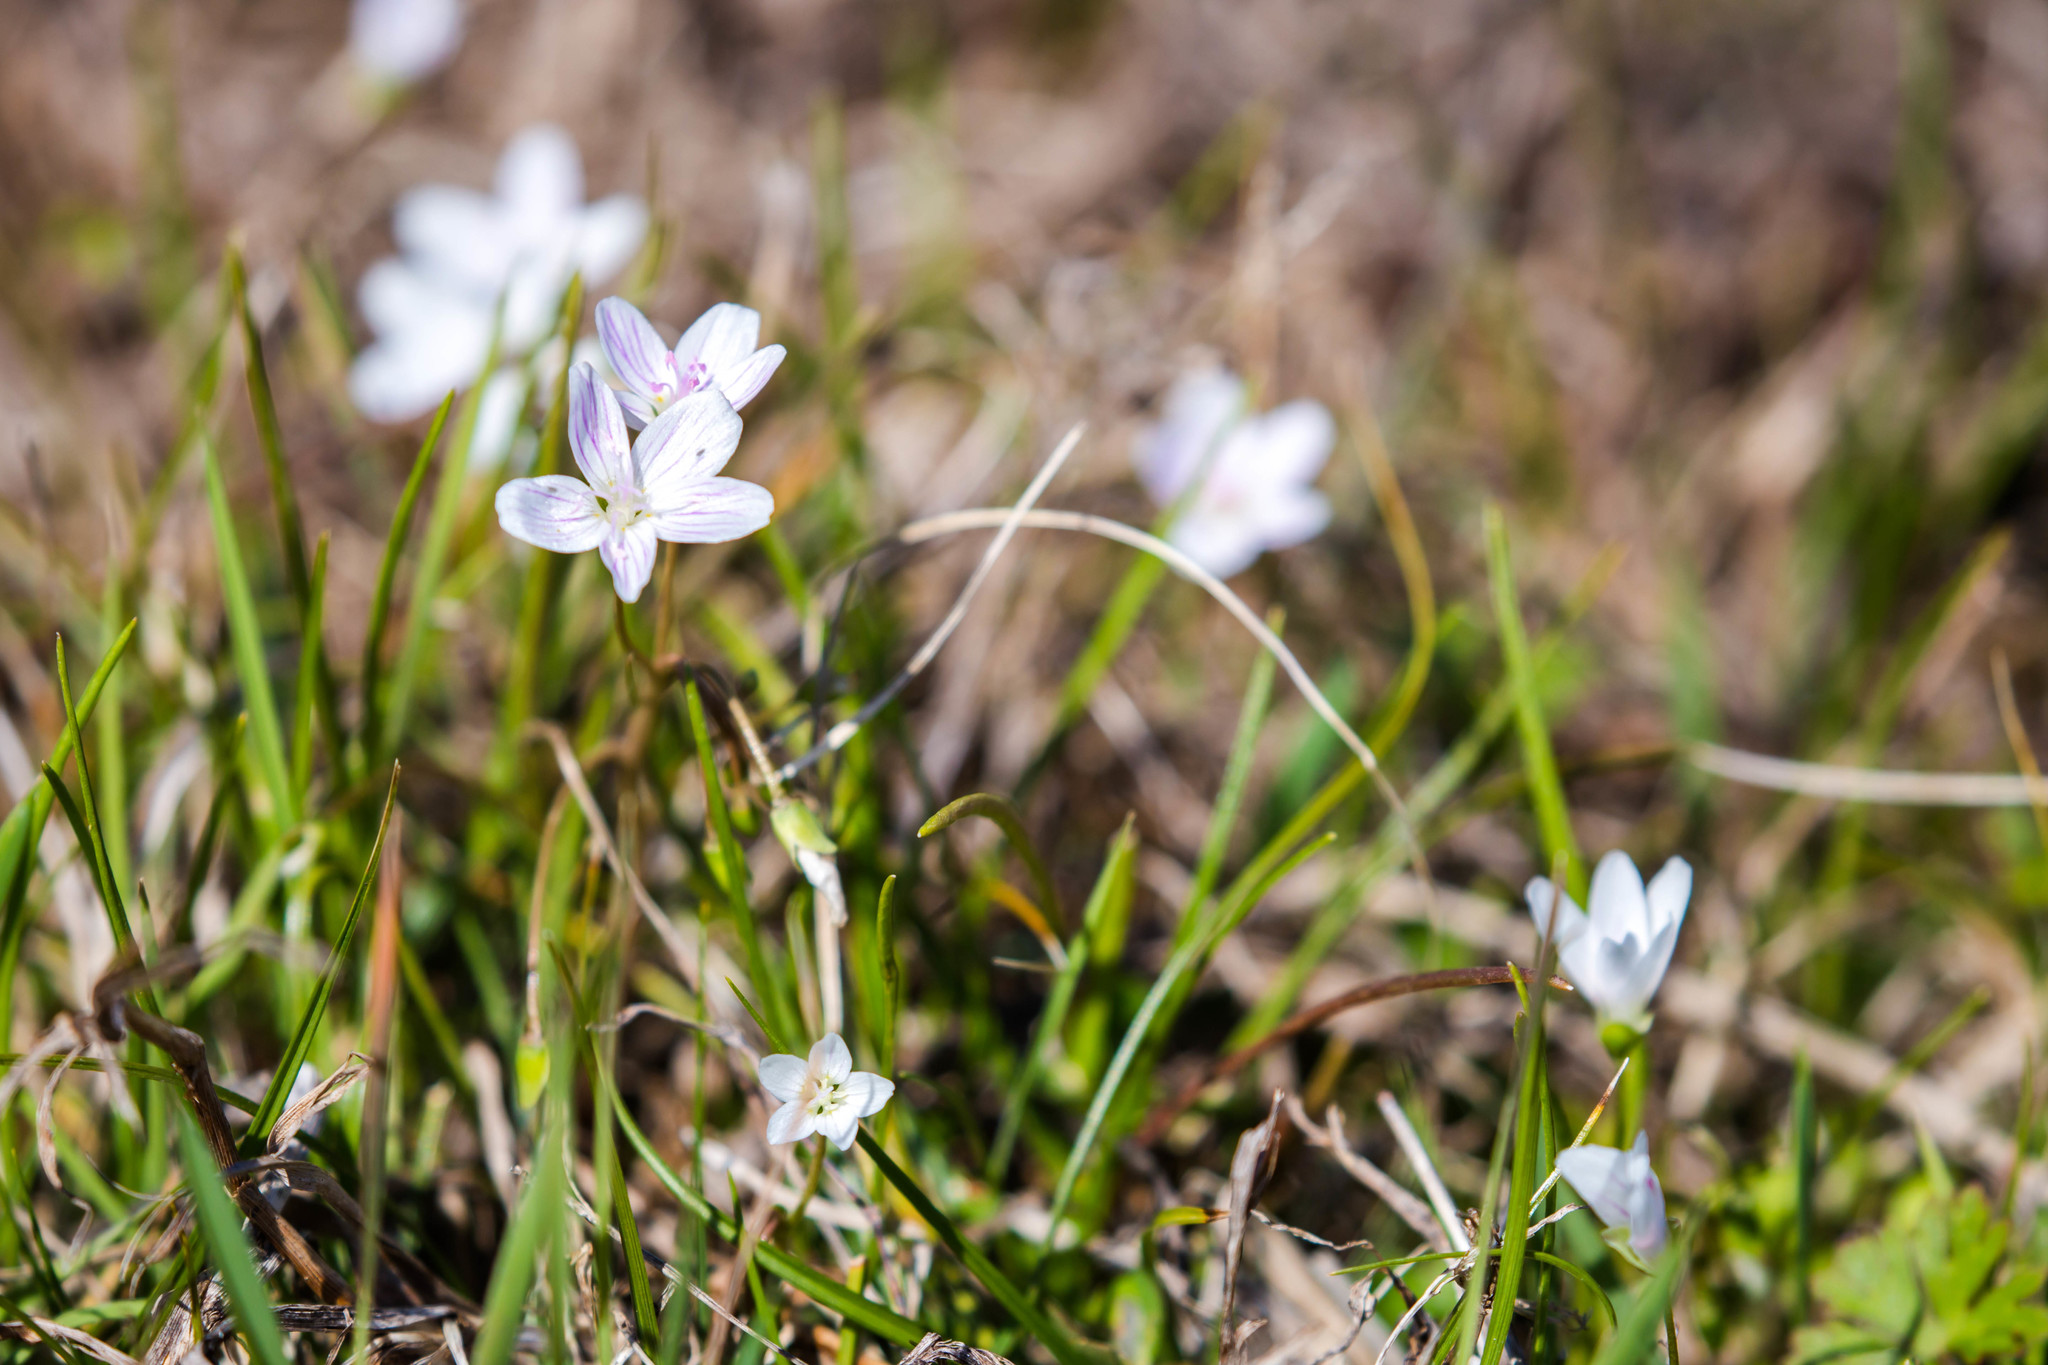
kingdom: Plantae
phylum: Tracheophyta
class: Magnoliopsida
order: Caryophyllales
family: Montiaceae
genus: Claytonia
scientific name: Claytonia virginica
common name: Virginia springbeauty
